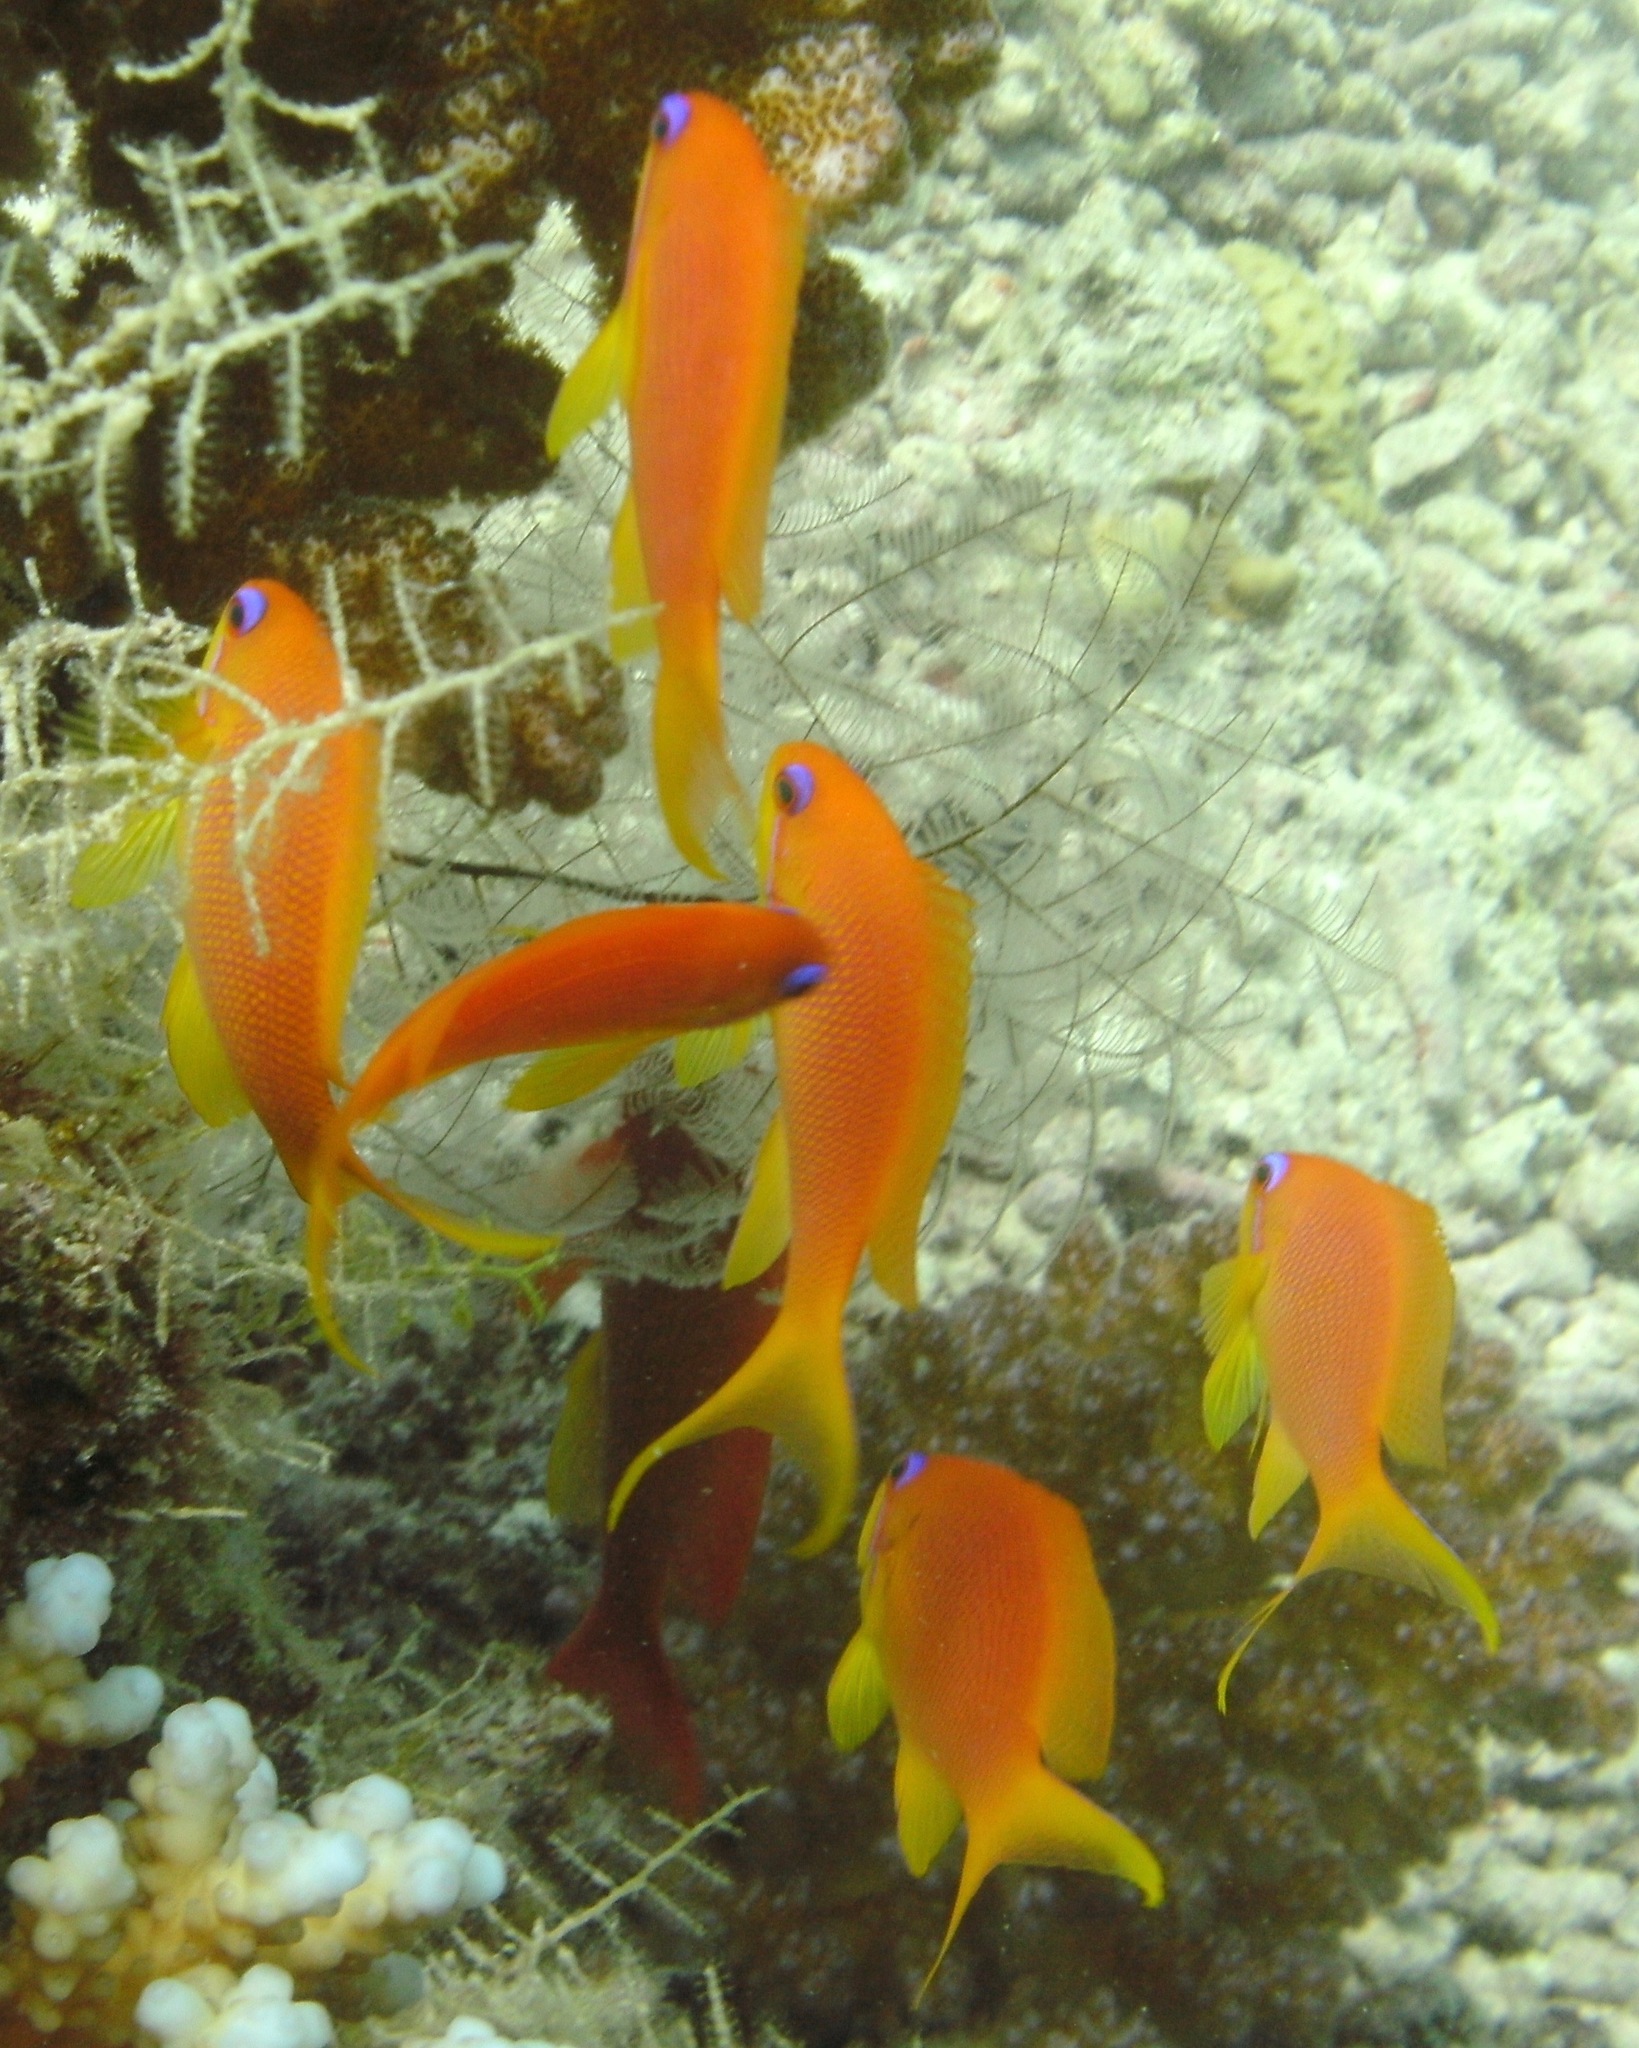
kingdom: Animalia
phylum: Chordata
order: Perciformes
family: Serranidae
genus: Pseudanthias
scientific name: Pseudanthias squamipinnis
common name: Scalefin anthias
